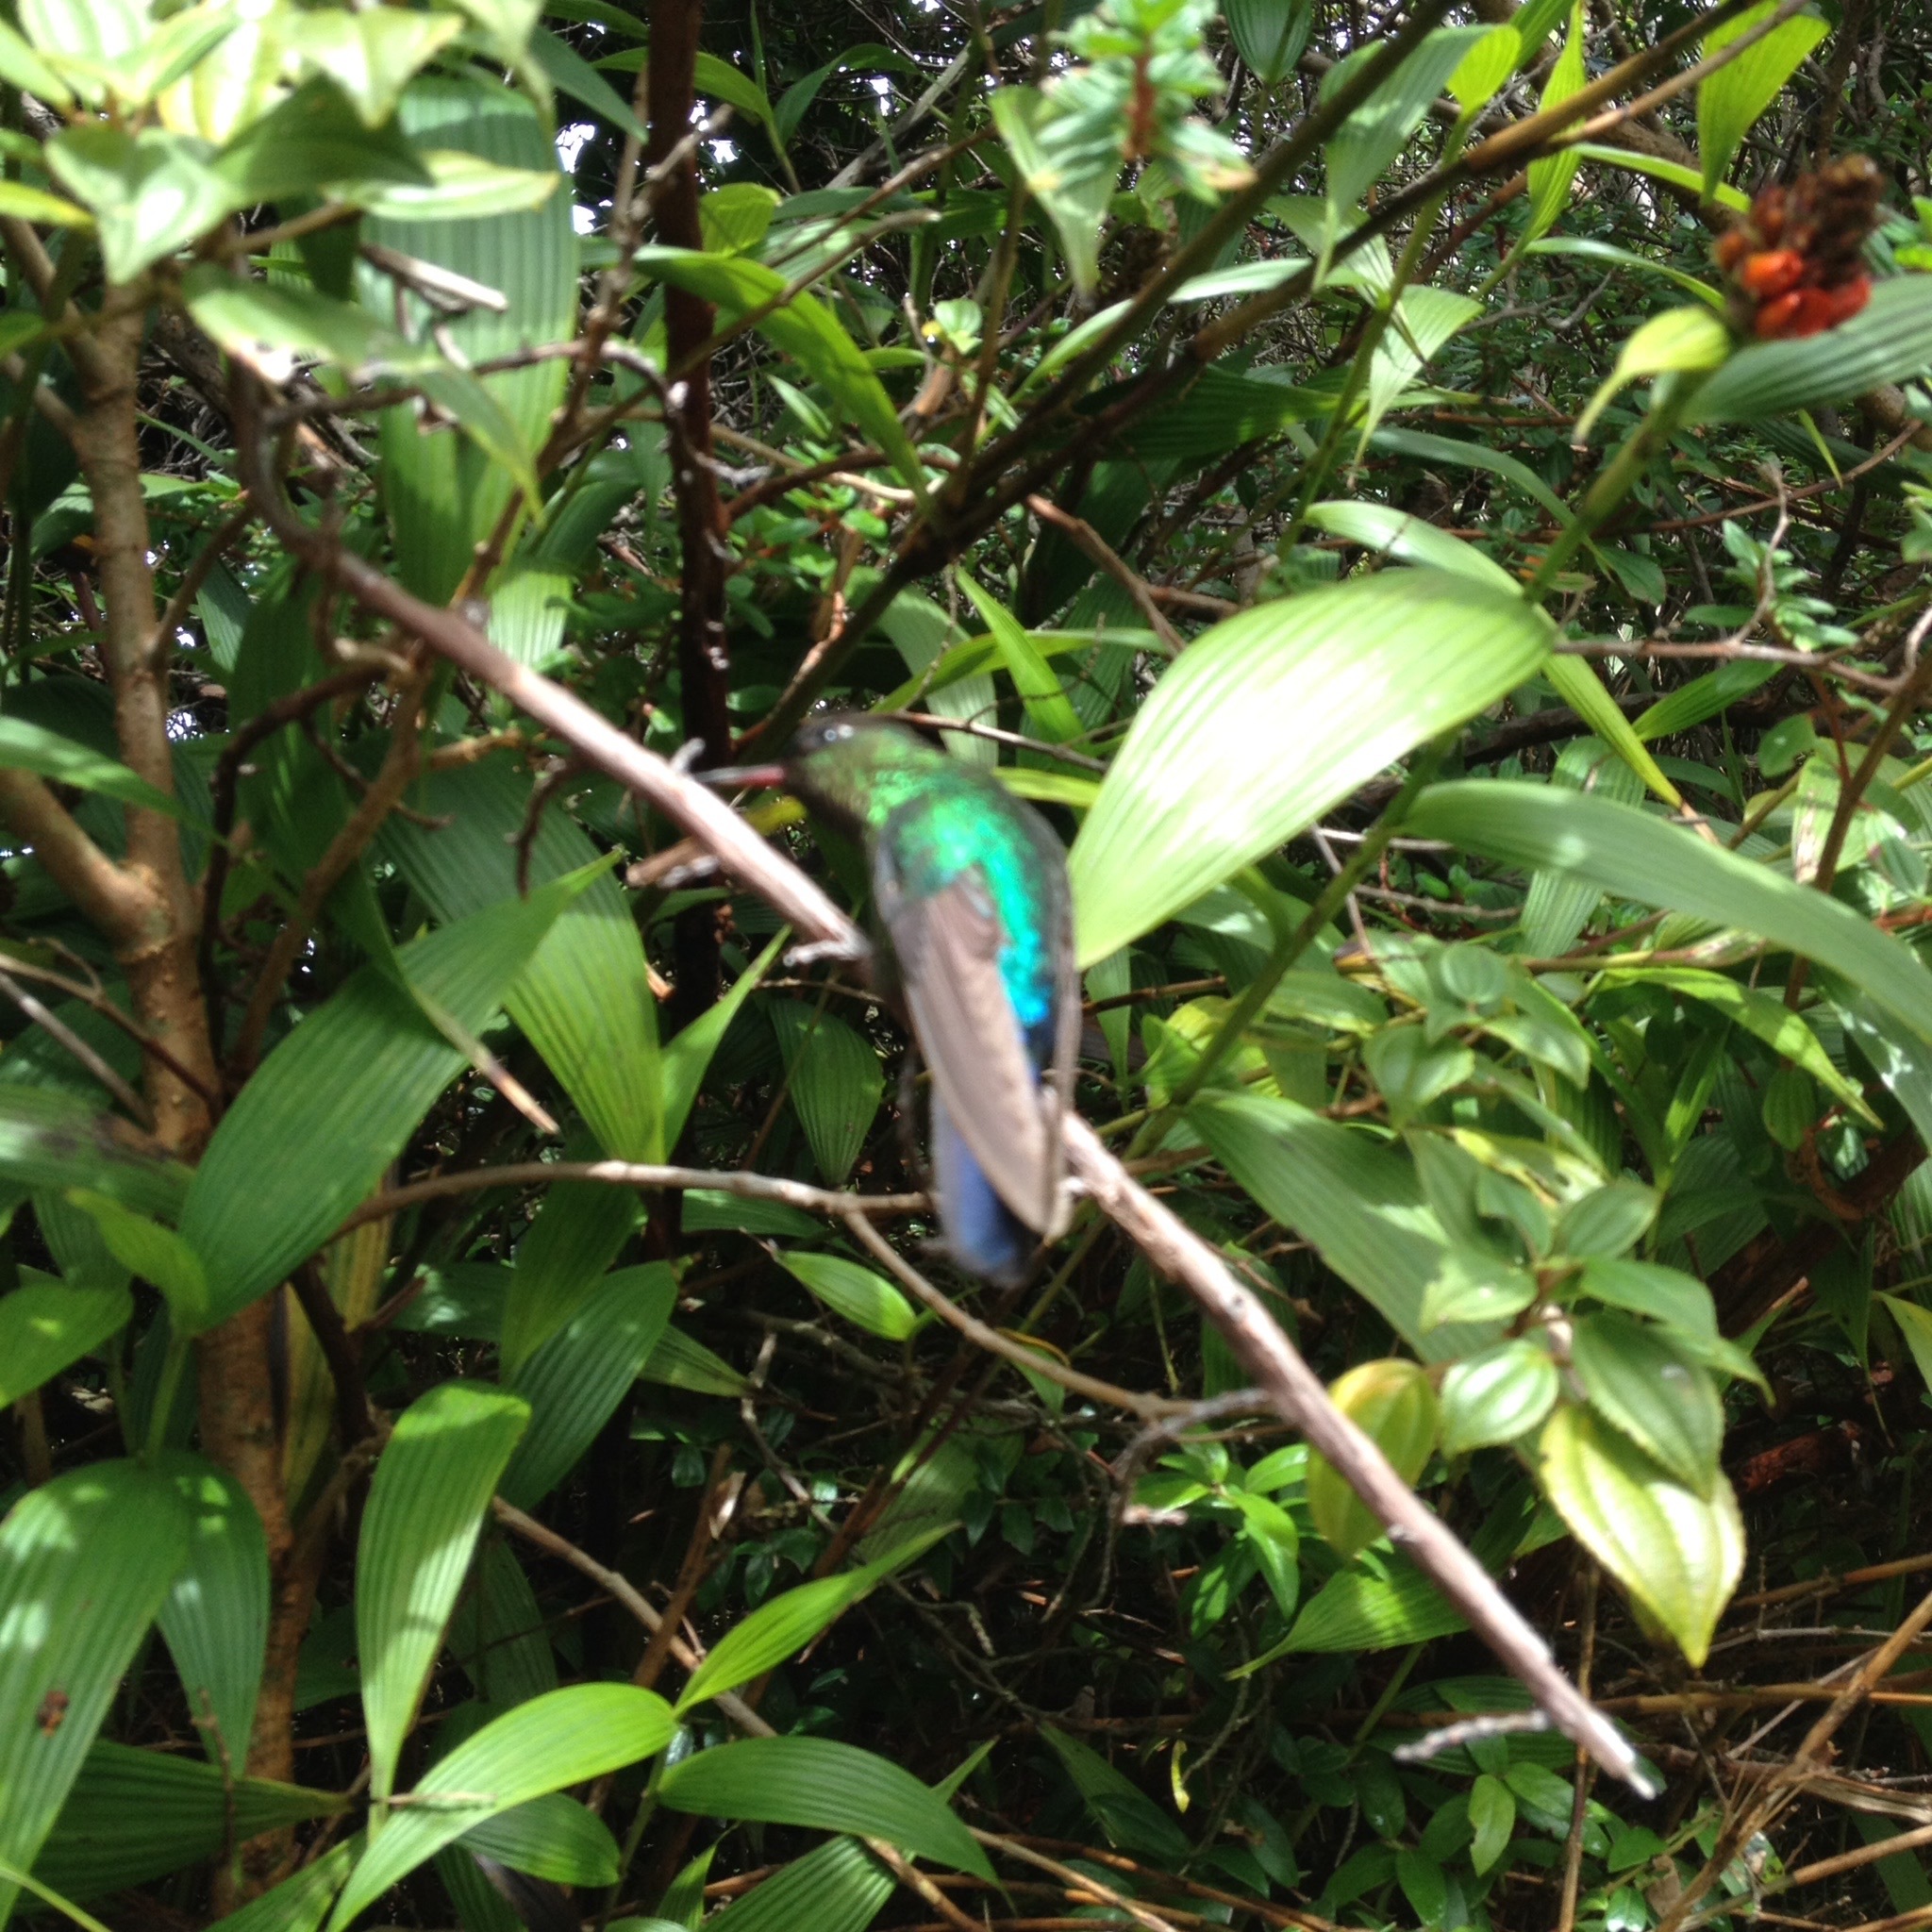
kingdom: Animalia
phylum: Chordata
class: Aves
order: Apodiformes
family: Trochilidae
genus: Panterpe
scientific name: Panterpe insignis
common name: Fiery-throated hummingbird
